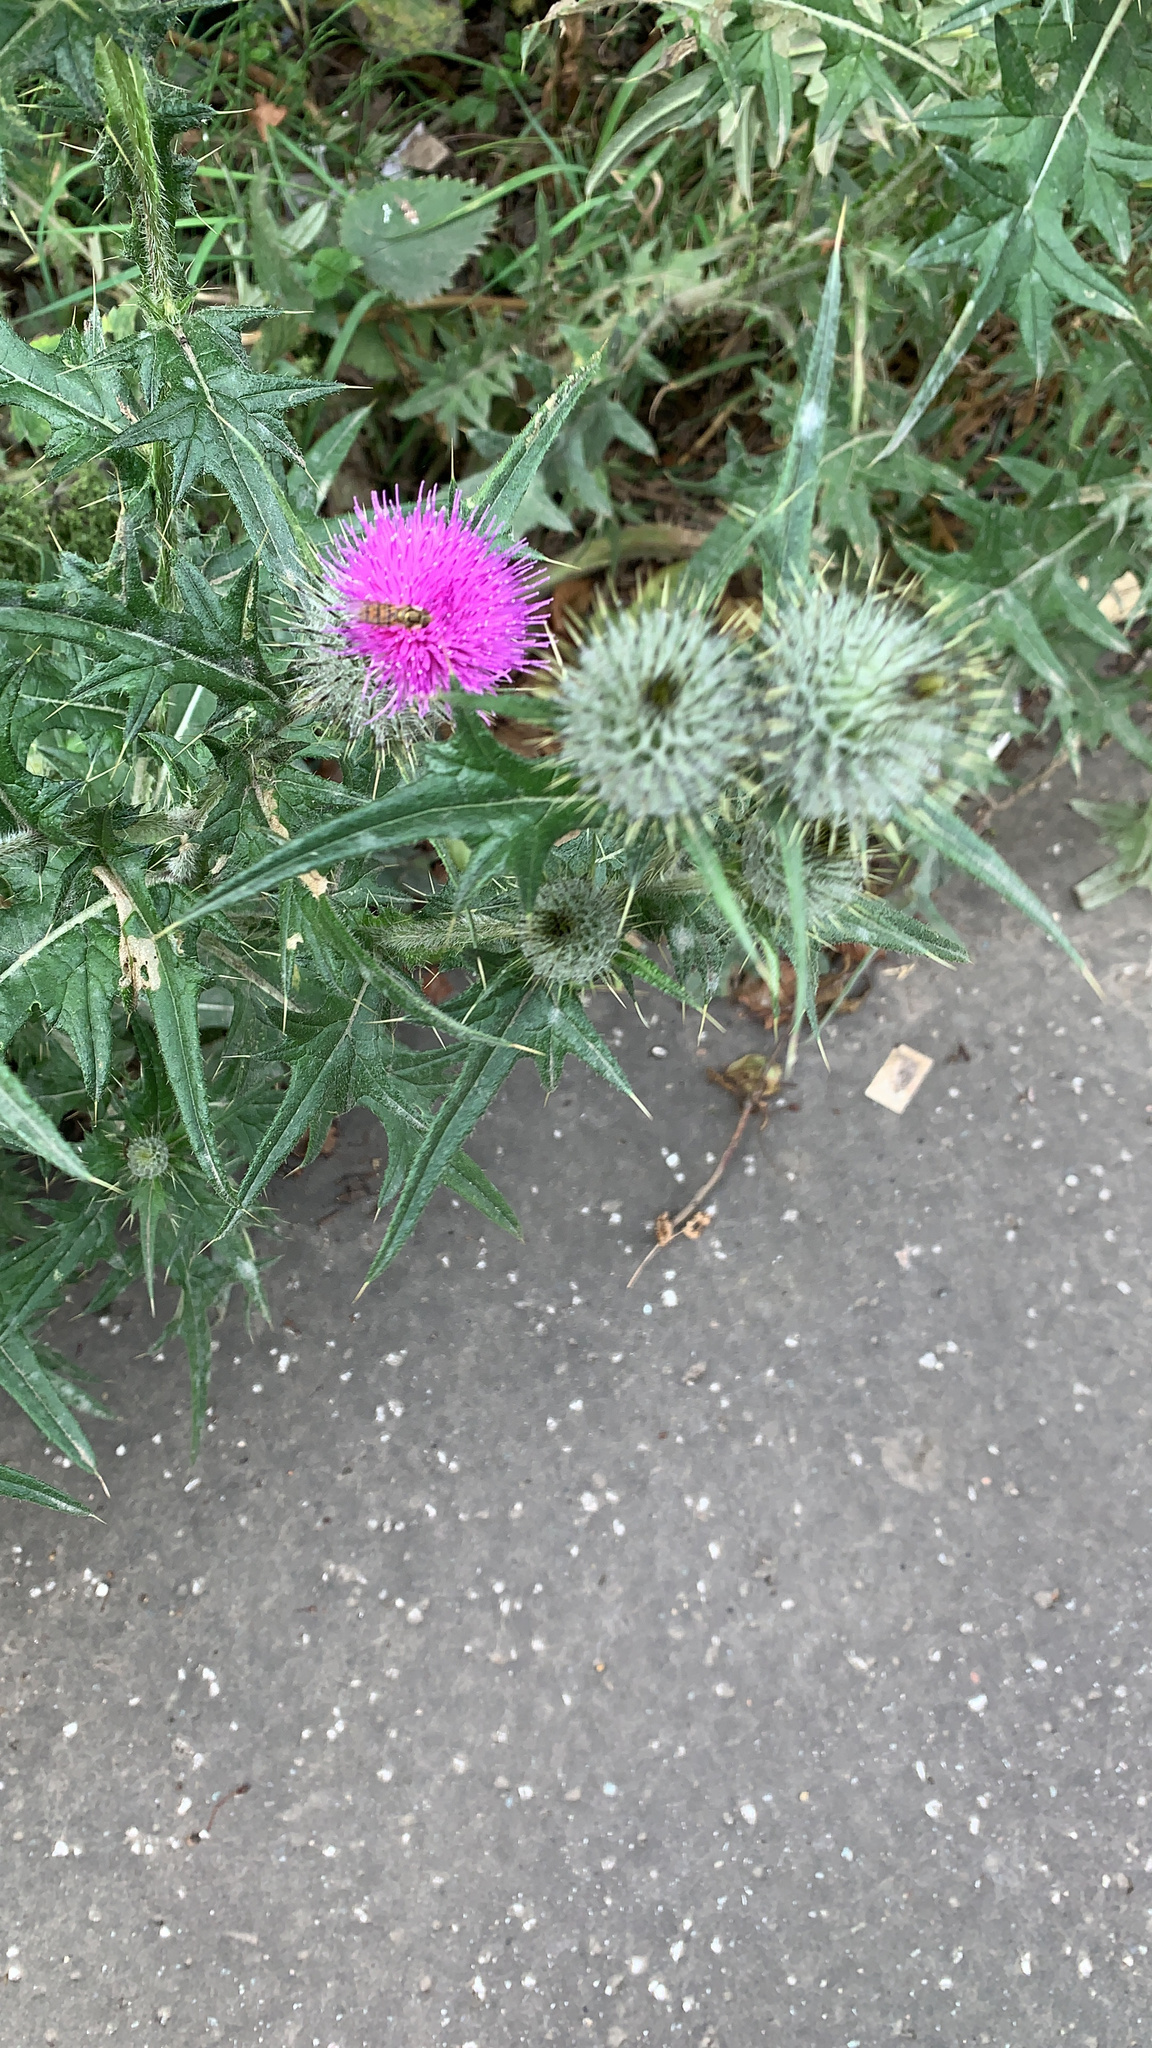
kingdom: Animalia
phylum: Arthropoda
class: Insecta
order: Diptera
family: Syrphidae
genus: Episyrphus
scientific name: Episyrphus balteatus
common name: Marmalade hoverfly
